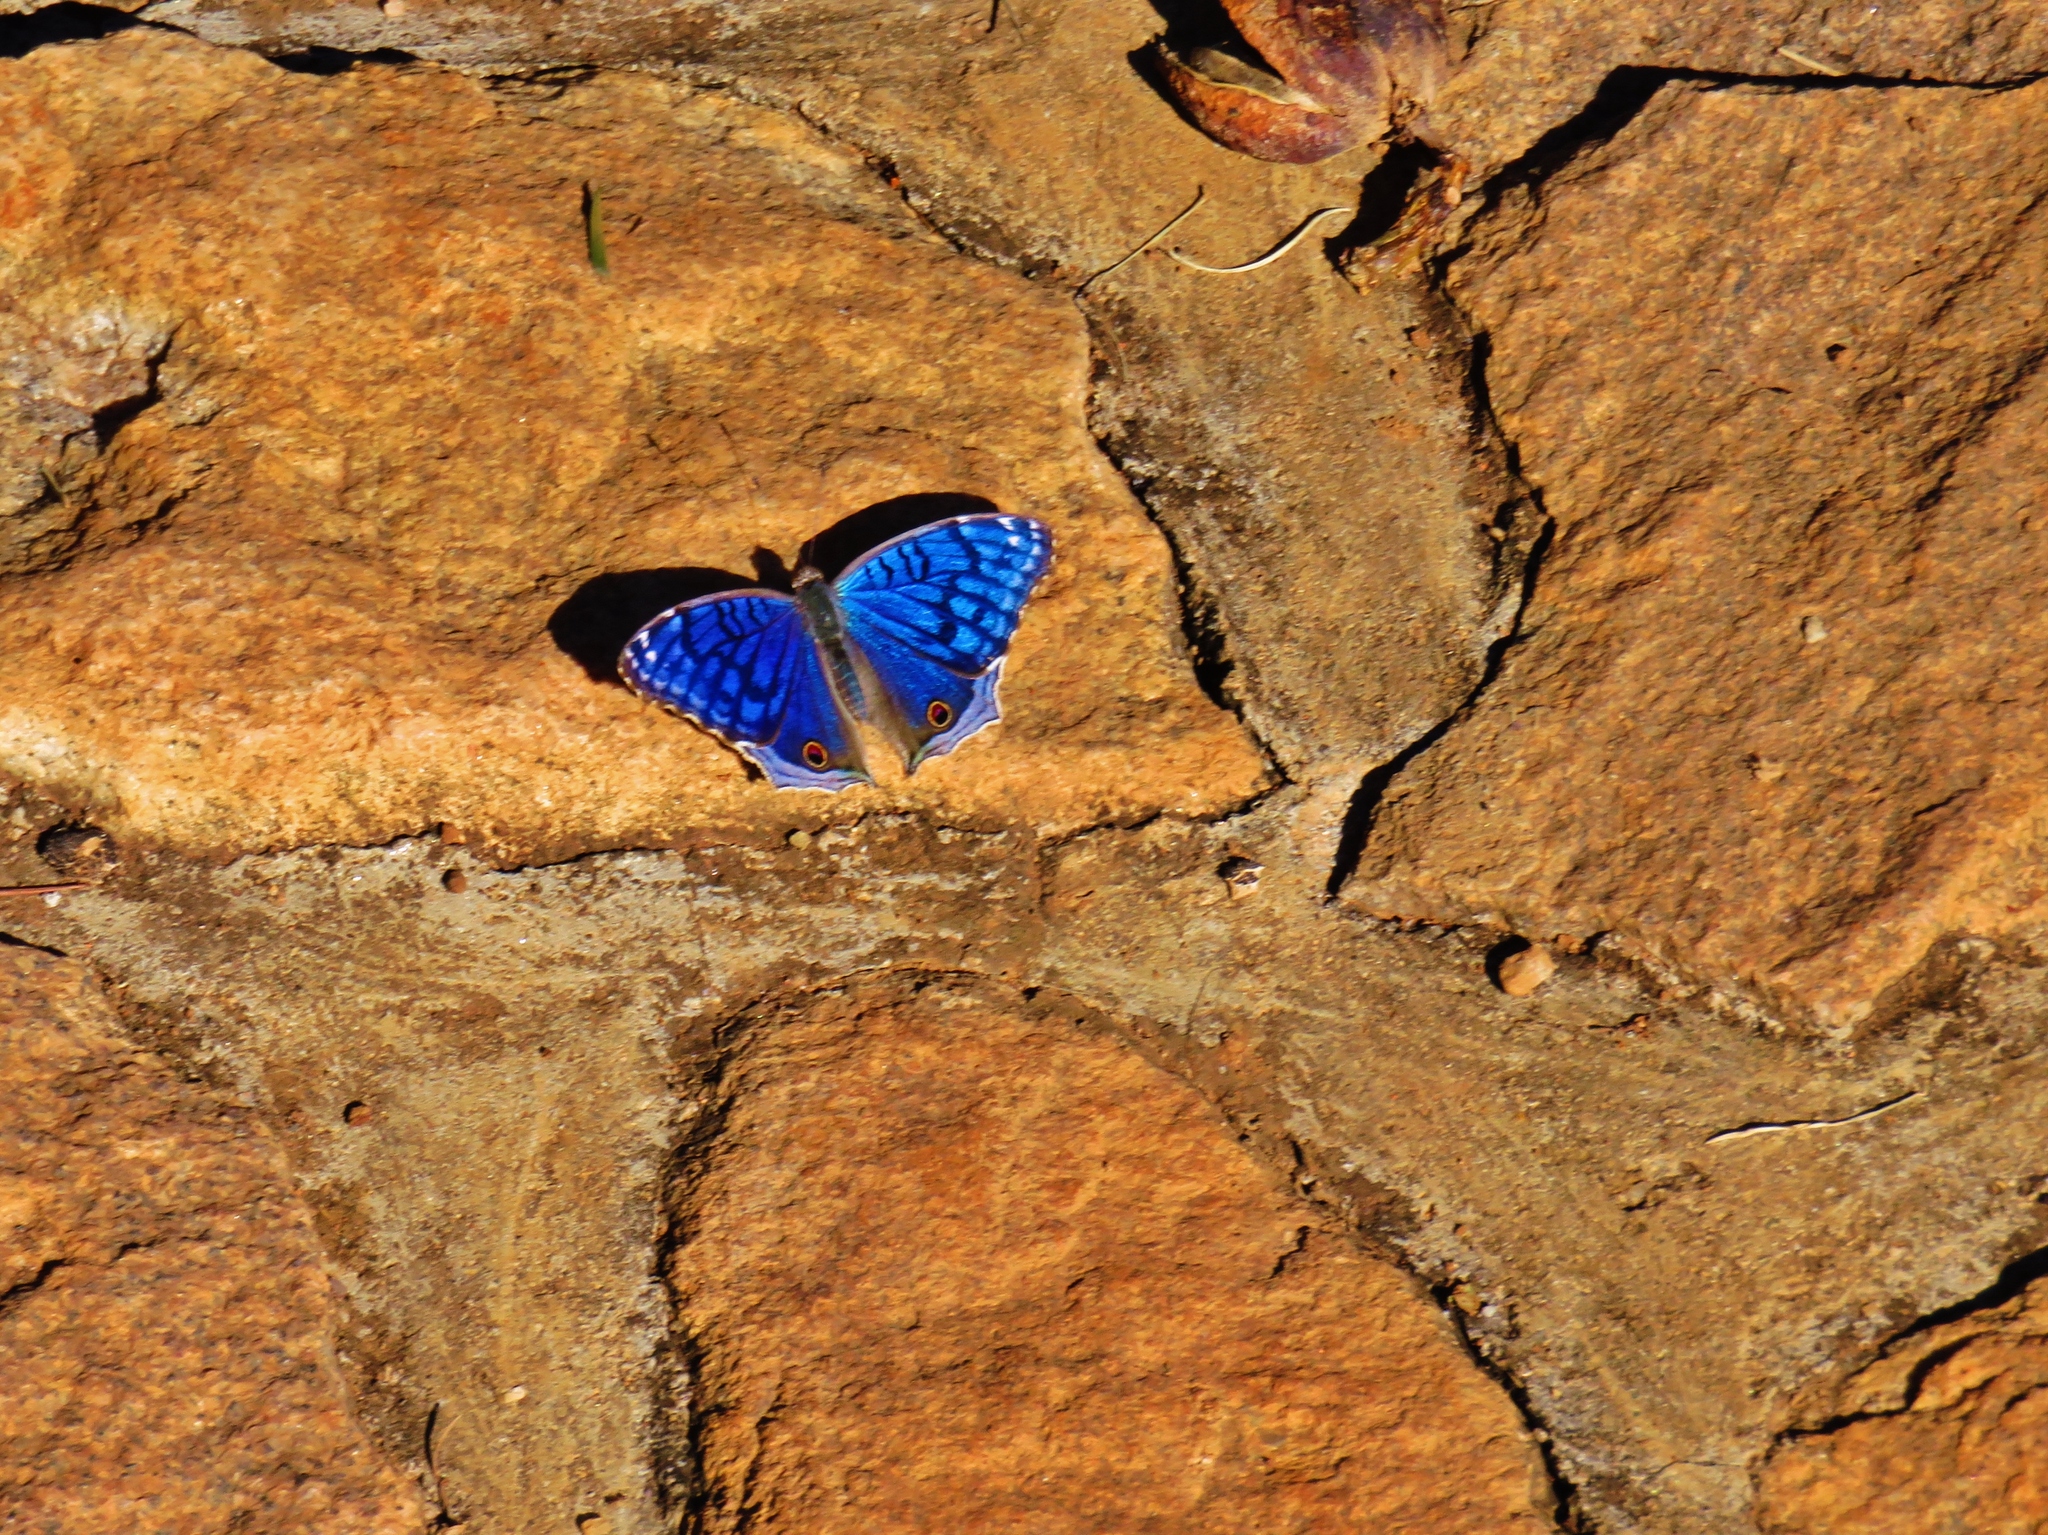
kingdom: Animalia
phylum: Arthropoda
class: Insecta
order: Lepidoptera
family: Nymphalidae
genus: Junonia
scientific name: Junonia rhadama
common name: Royal blue pansy
